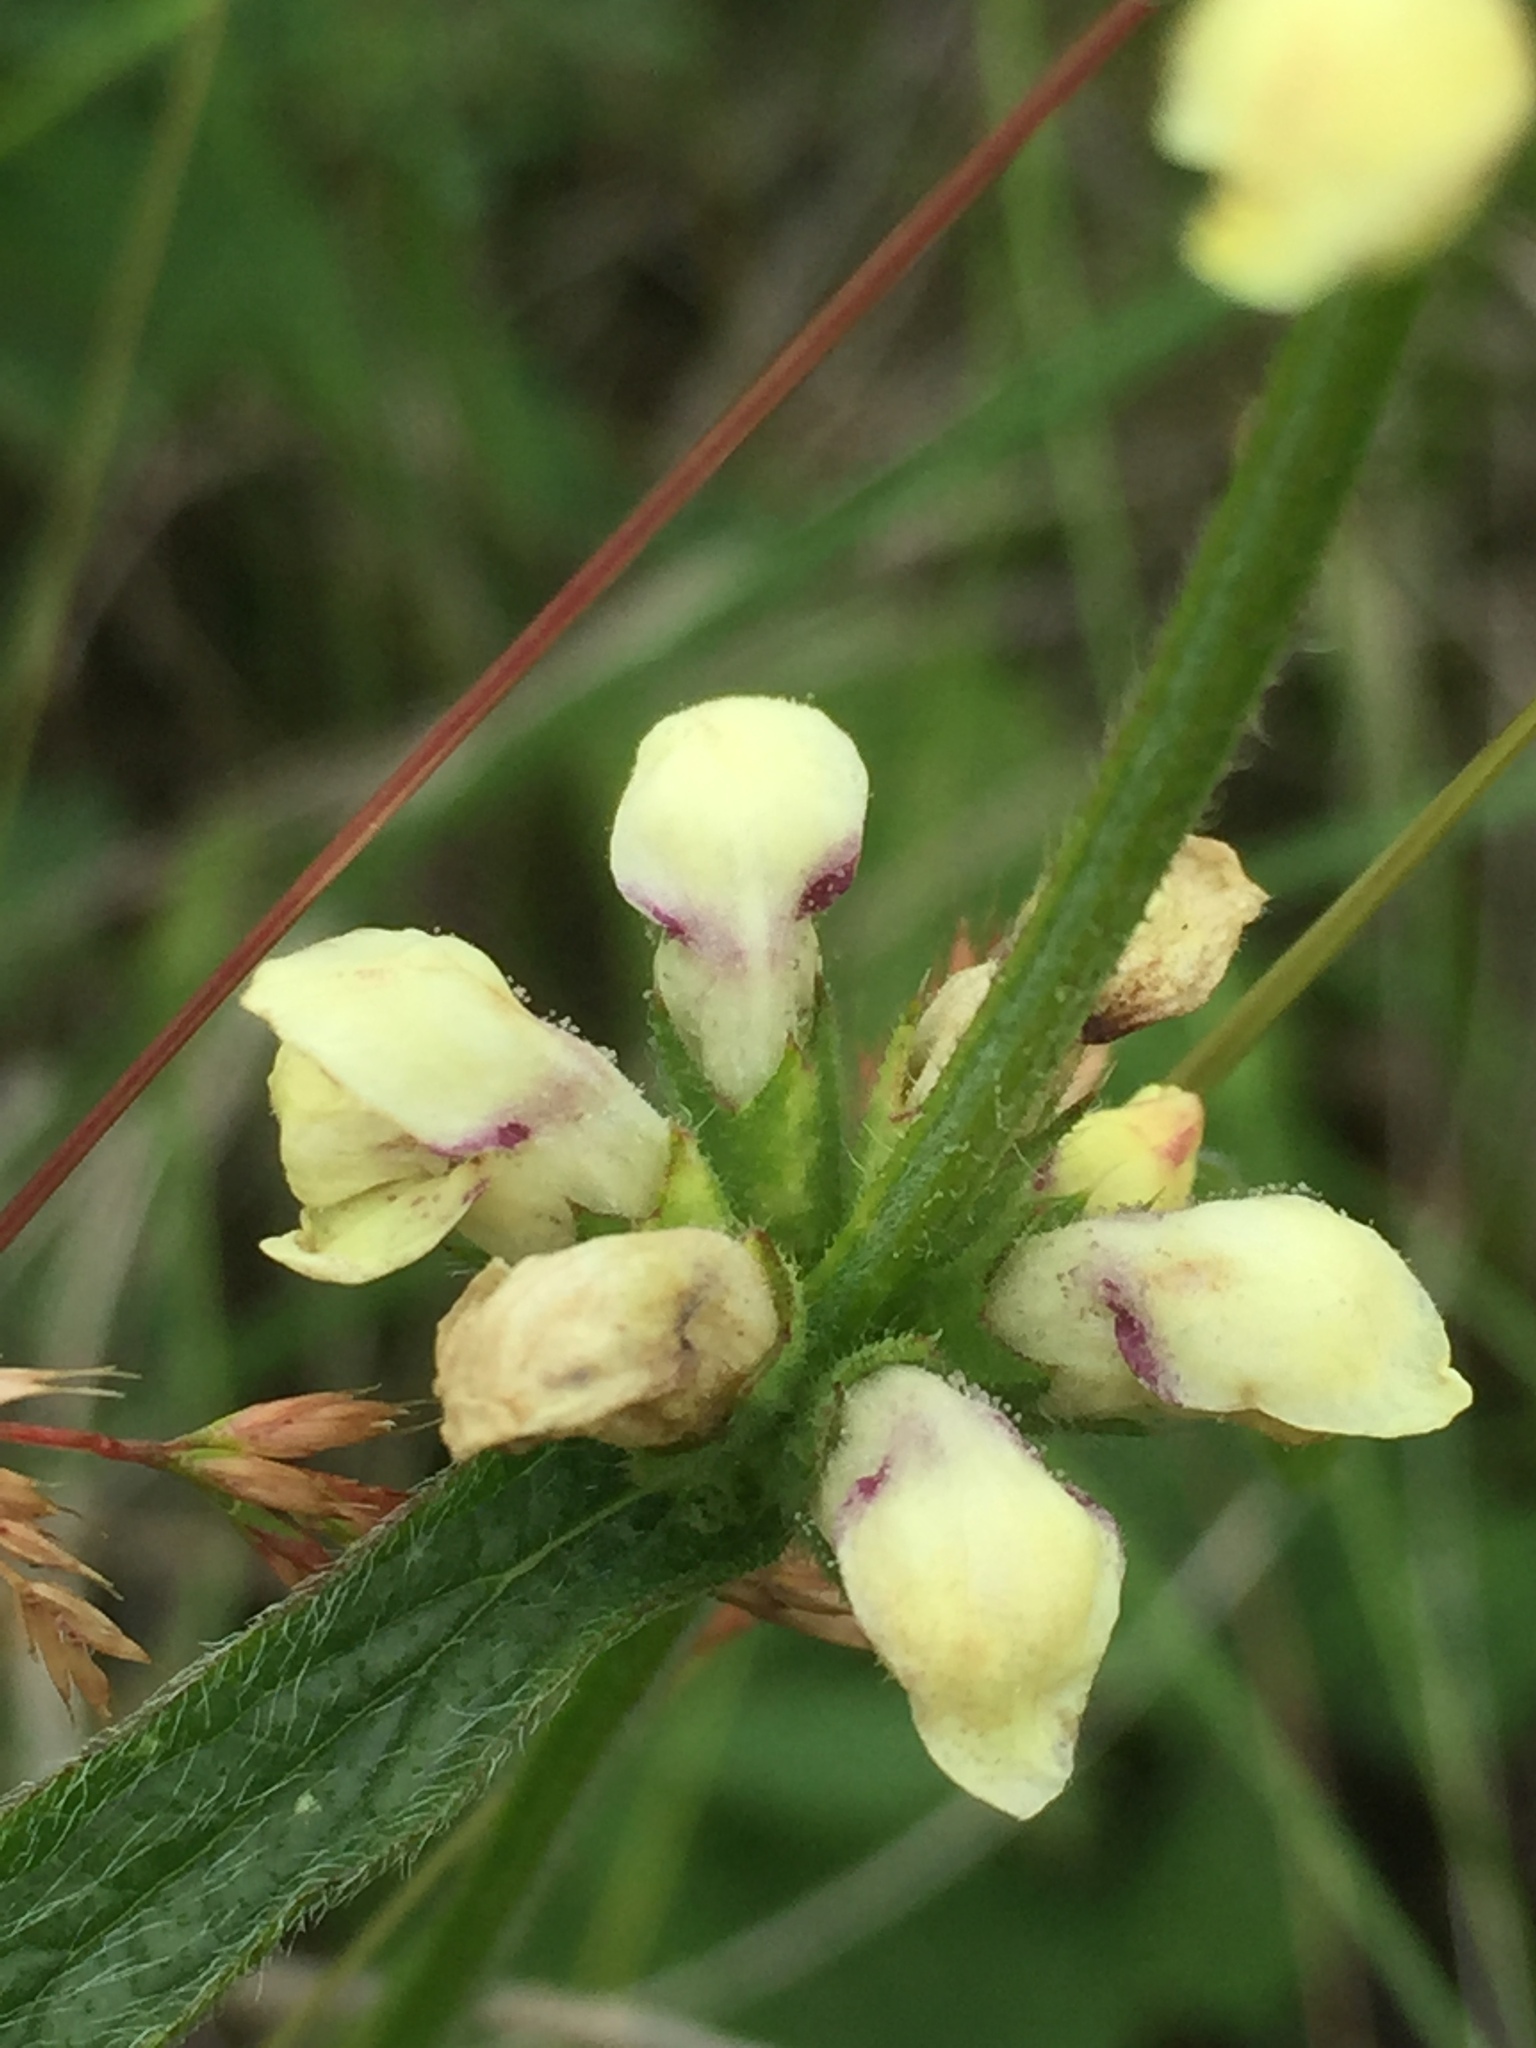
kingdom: Plantae
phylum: Tracheophyta
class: Magnoliopsida
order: Lamiales
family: Lamiaceae
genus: Stachys
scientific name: Stachys recta
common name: Perennial yellow-woundwort
